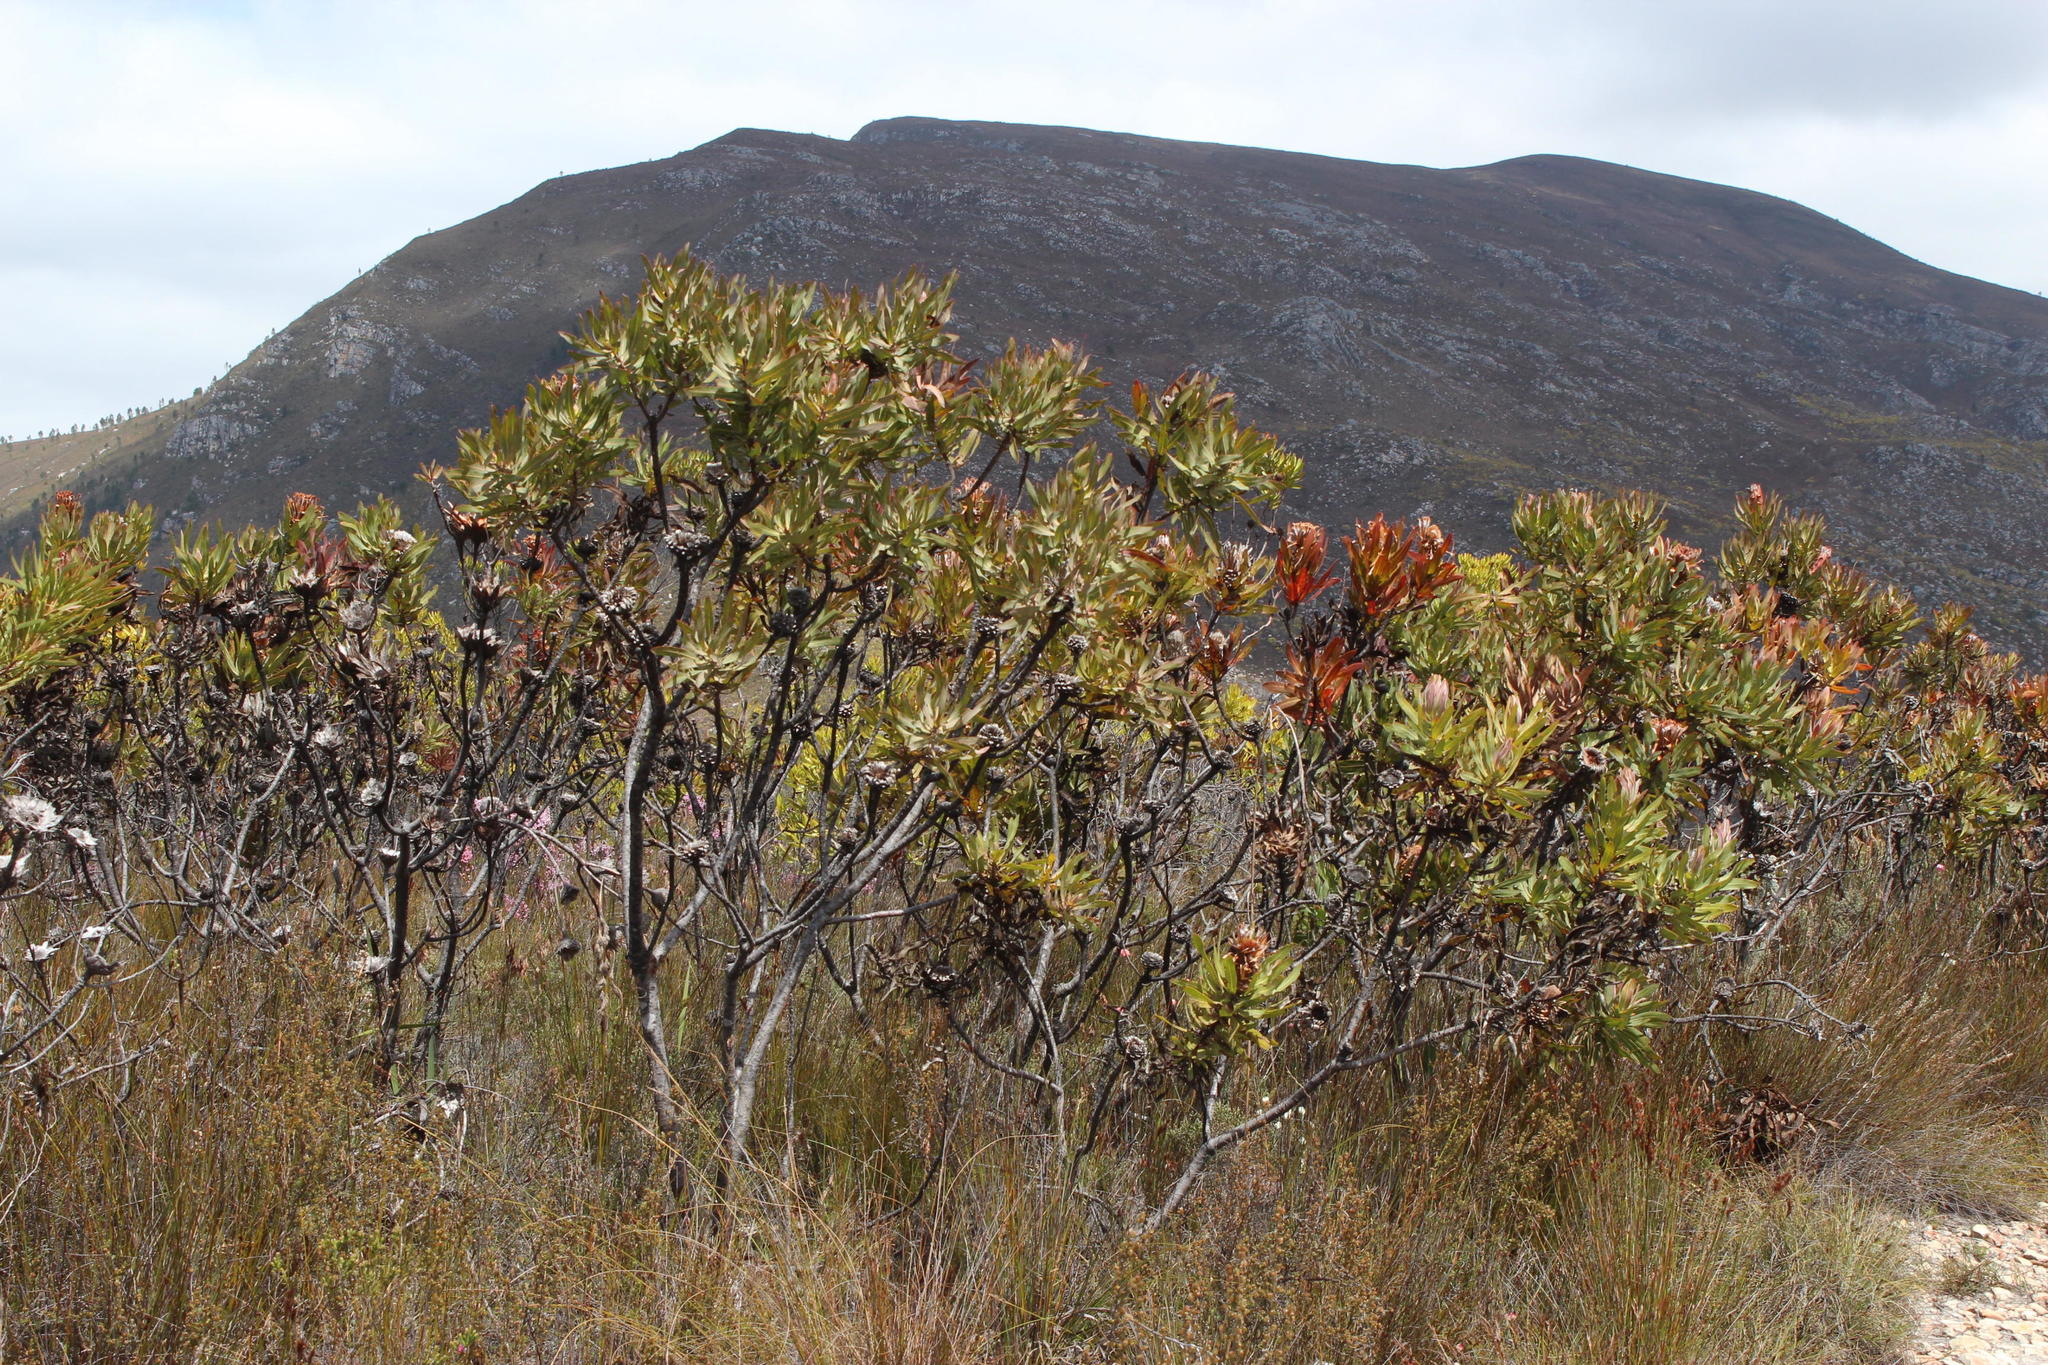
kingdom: Plantae
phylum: Tracheophyta
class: Magnoliopsida
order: Proteales
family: Proteaceae
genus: Protea
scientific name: Protea neriifolia
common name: Blue sugarbush
